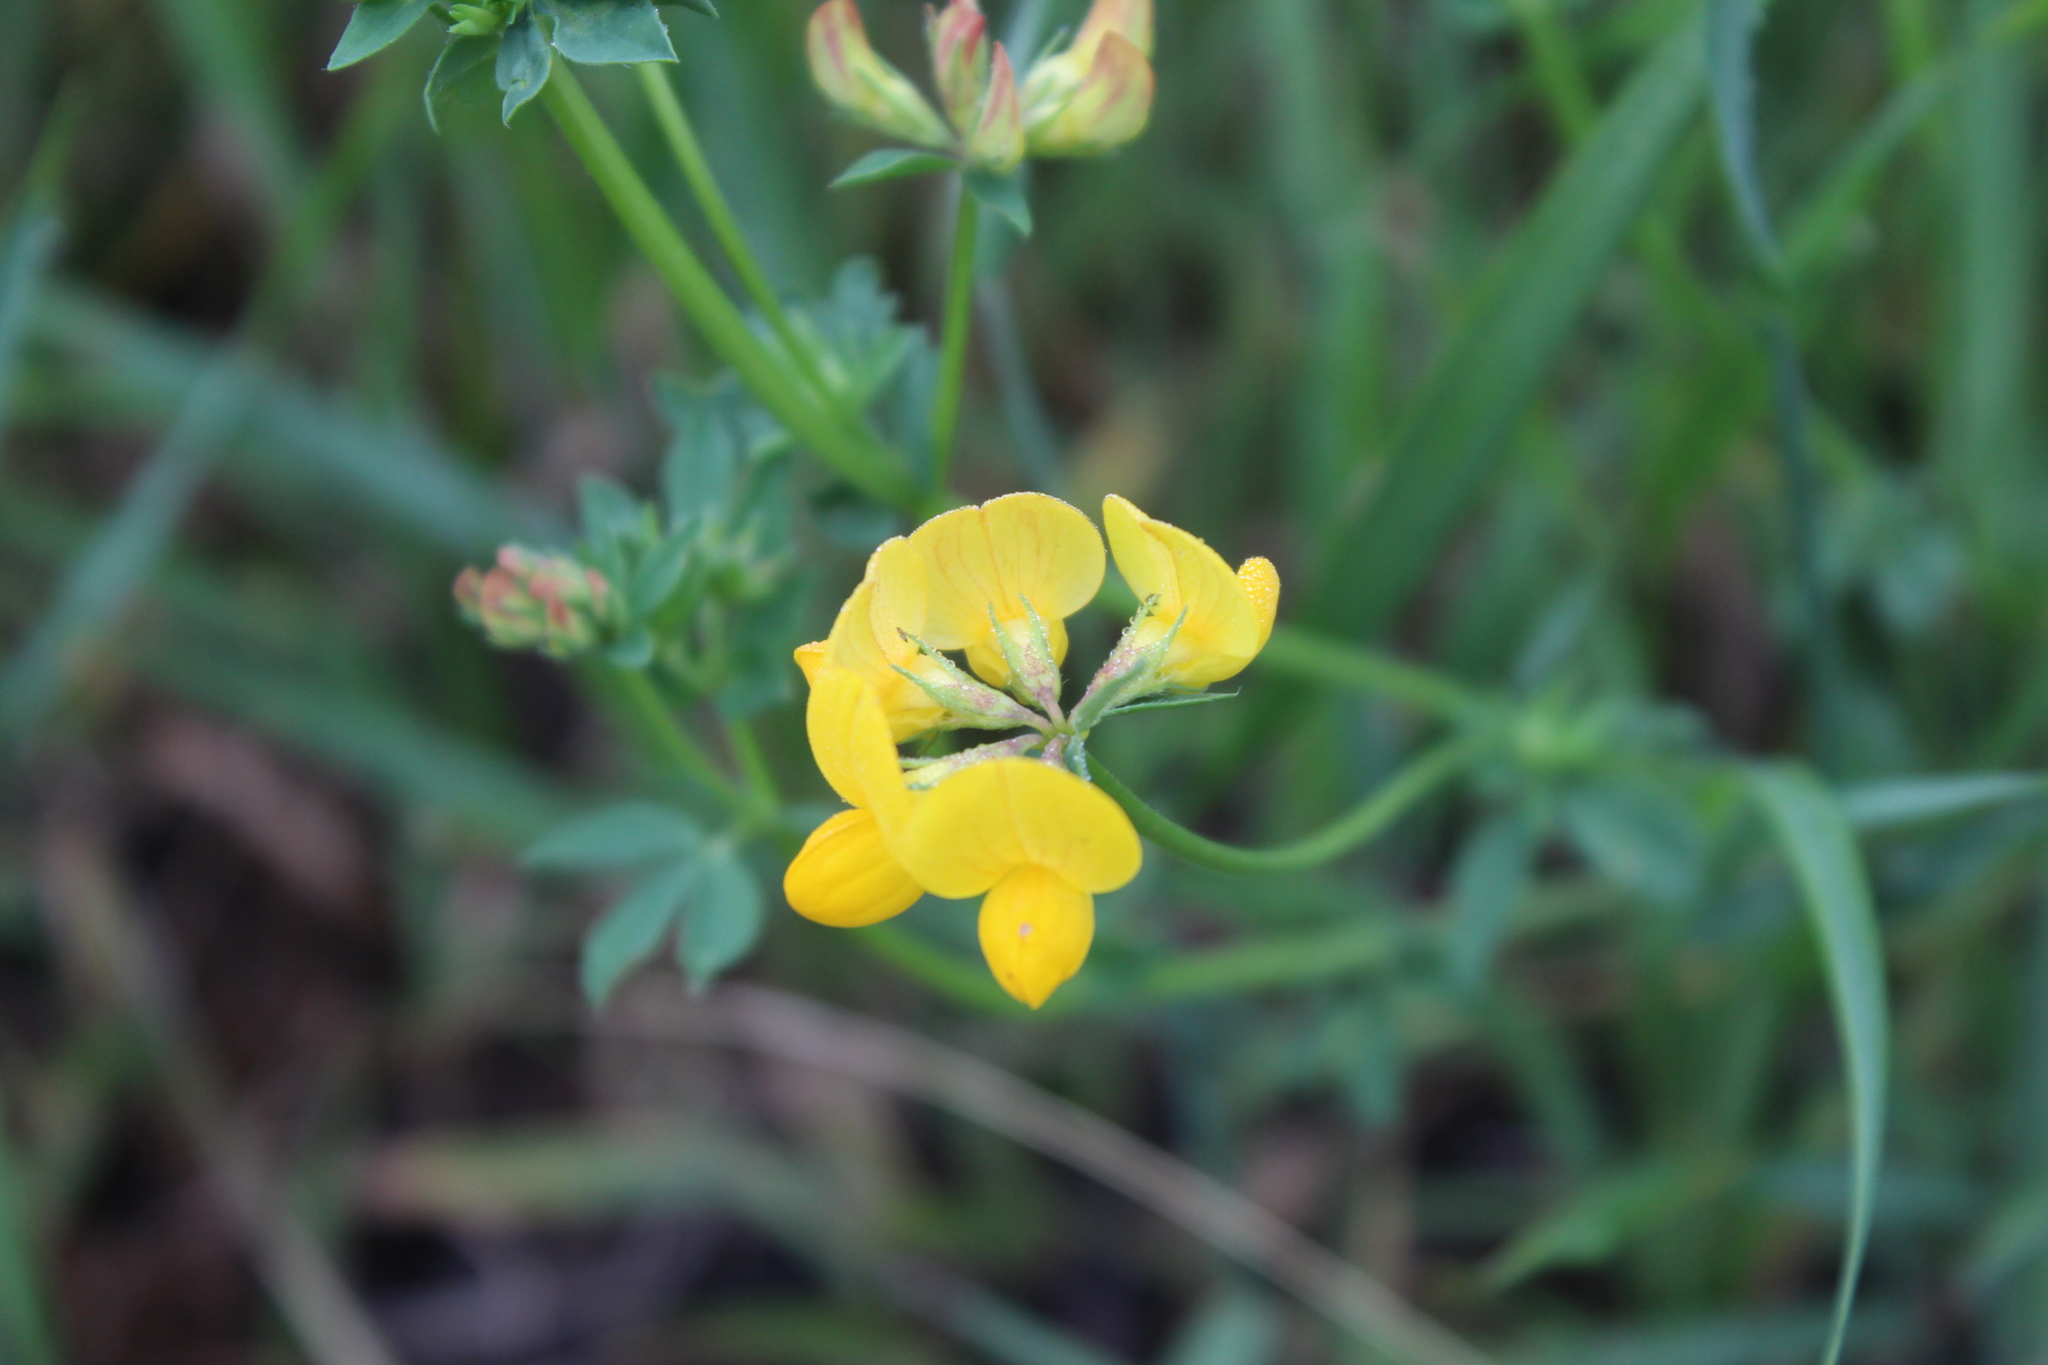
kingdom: Plantae
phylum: Tracheophyta
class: Magnoliopsida
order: Fabales
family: Fabaceae
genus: Lotus
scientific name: Lotus corniculatus
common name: Common bird's-foot-trefoil
